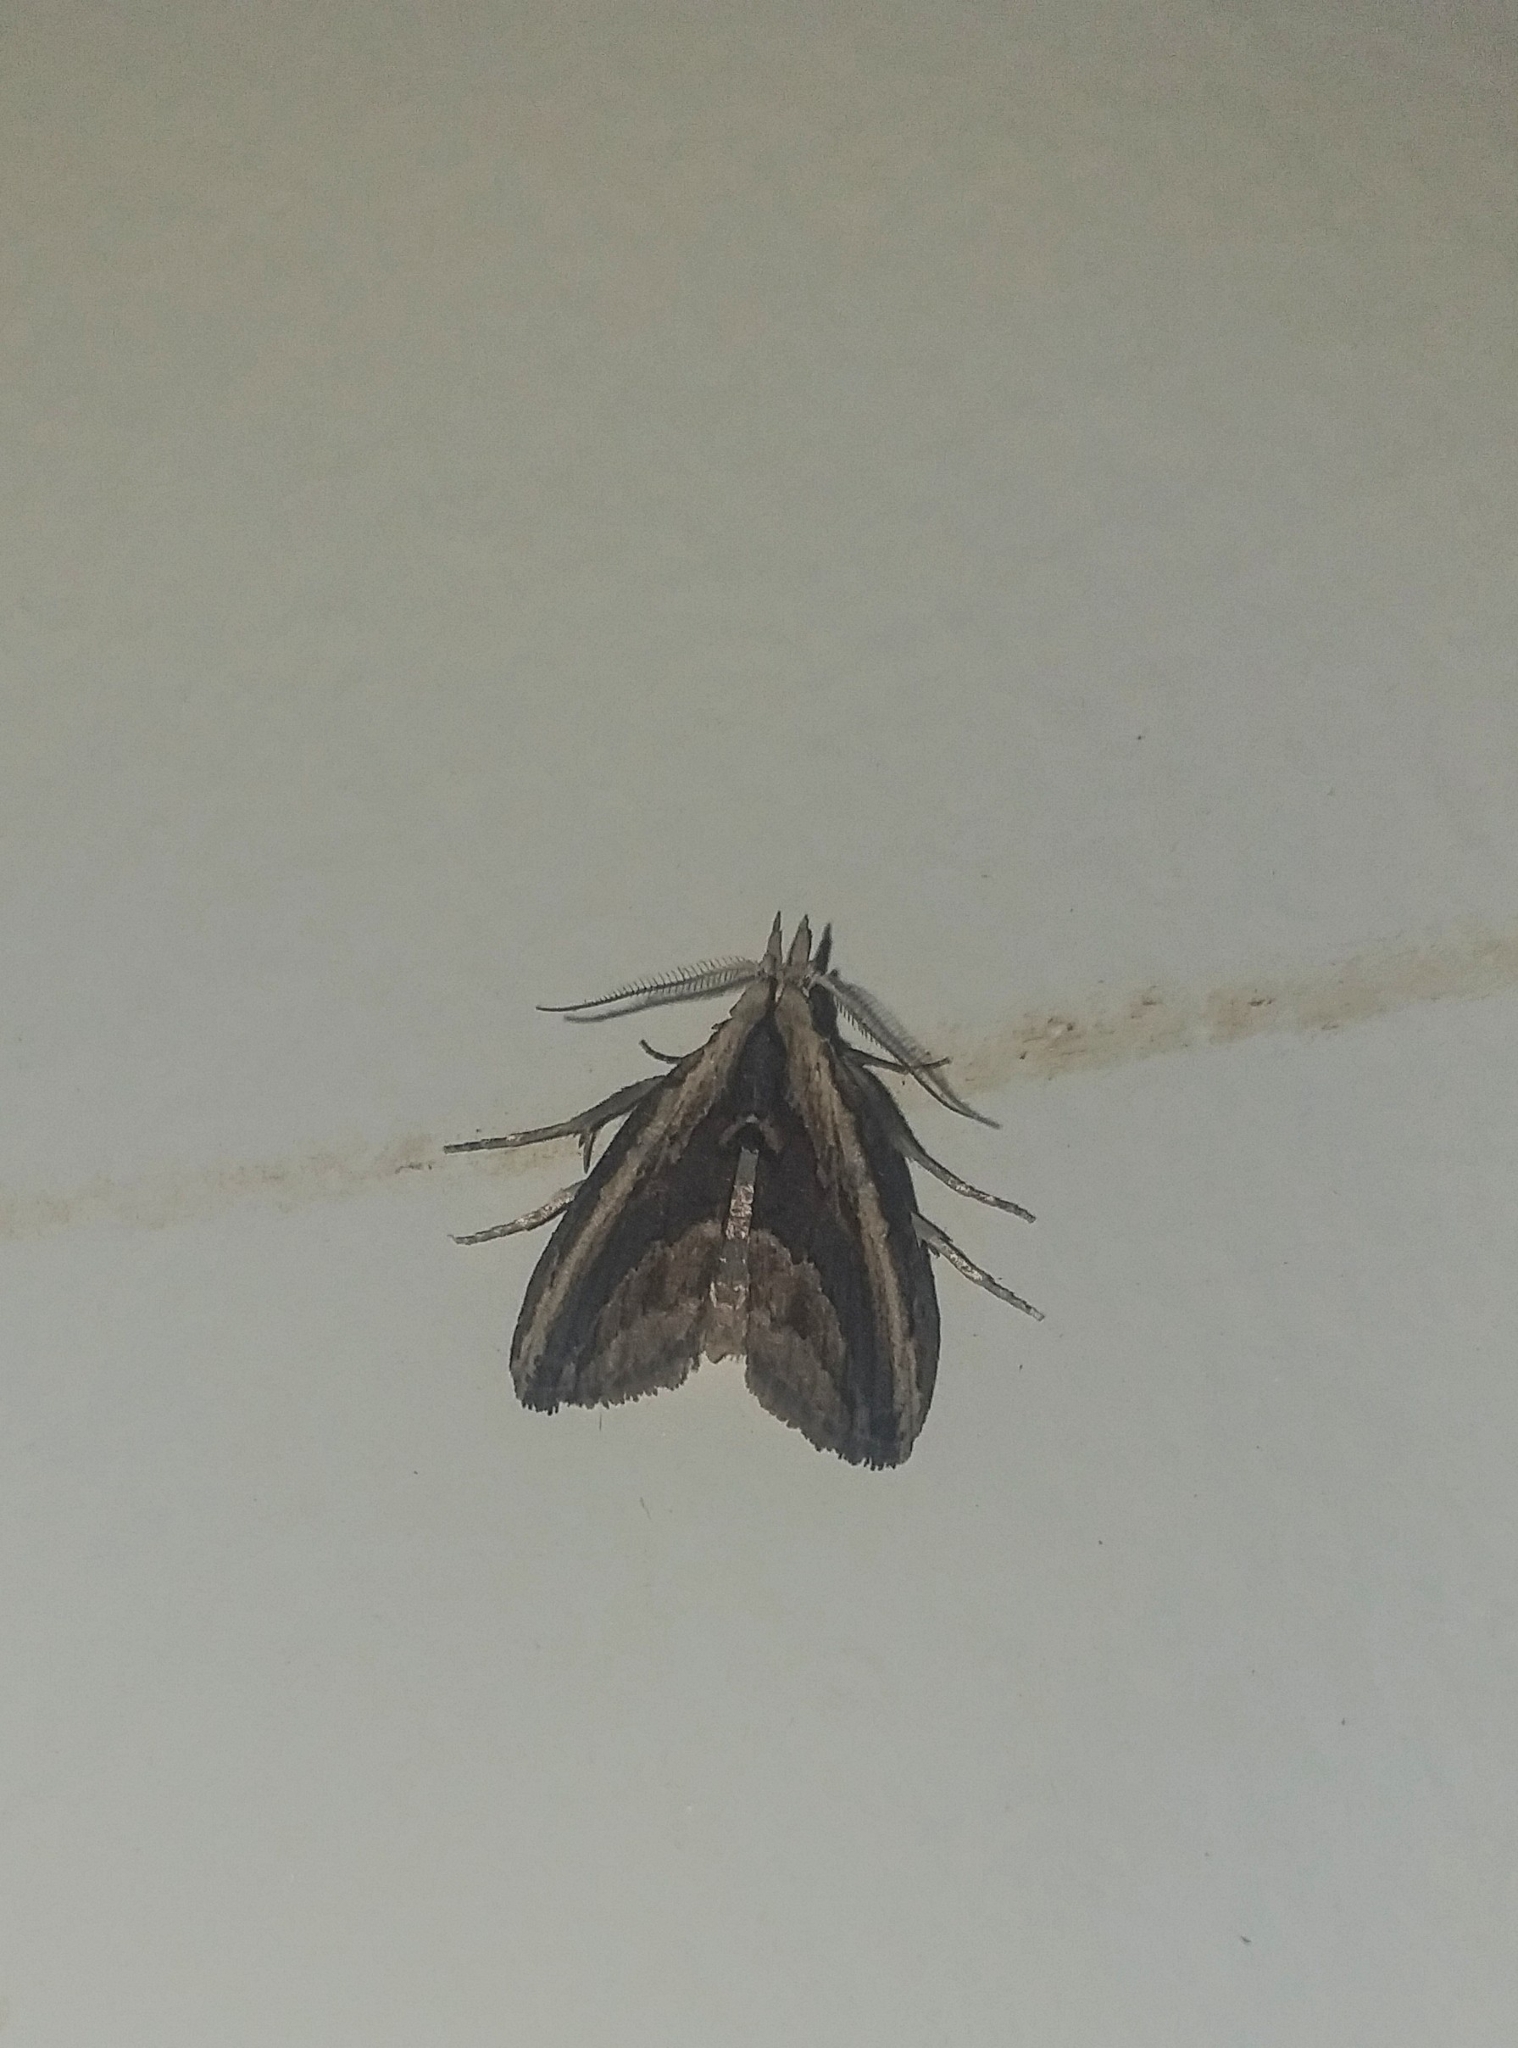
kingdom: Animalia
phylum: Arthropoda
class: Insecta
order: Lepidoptera
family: Nolidae
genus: Proneca
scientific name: Proneca fola
